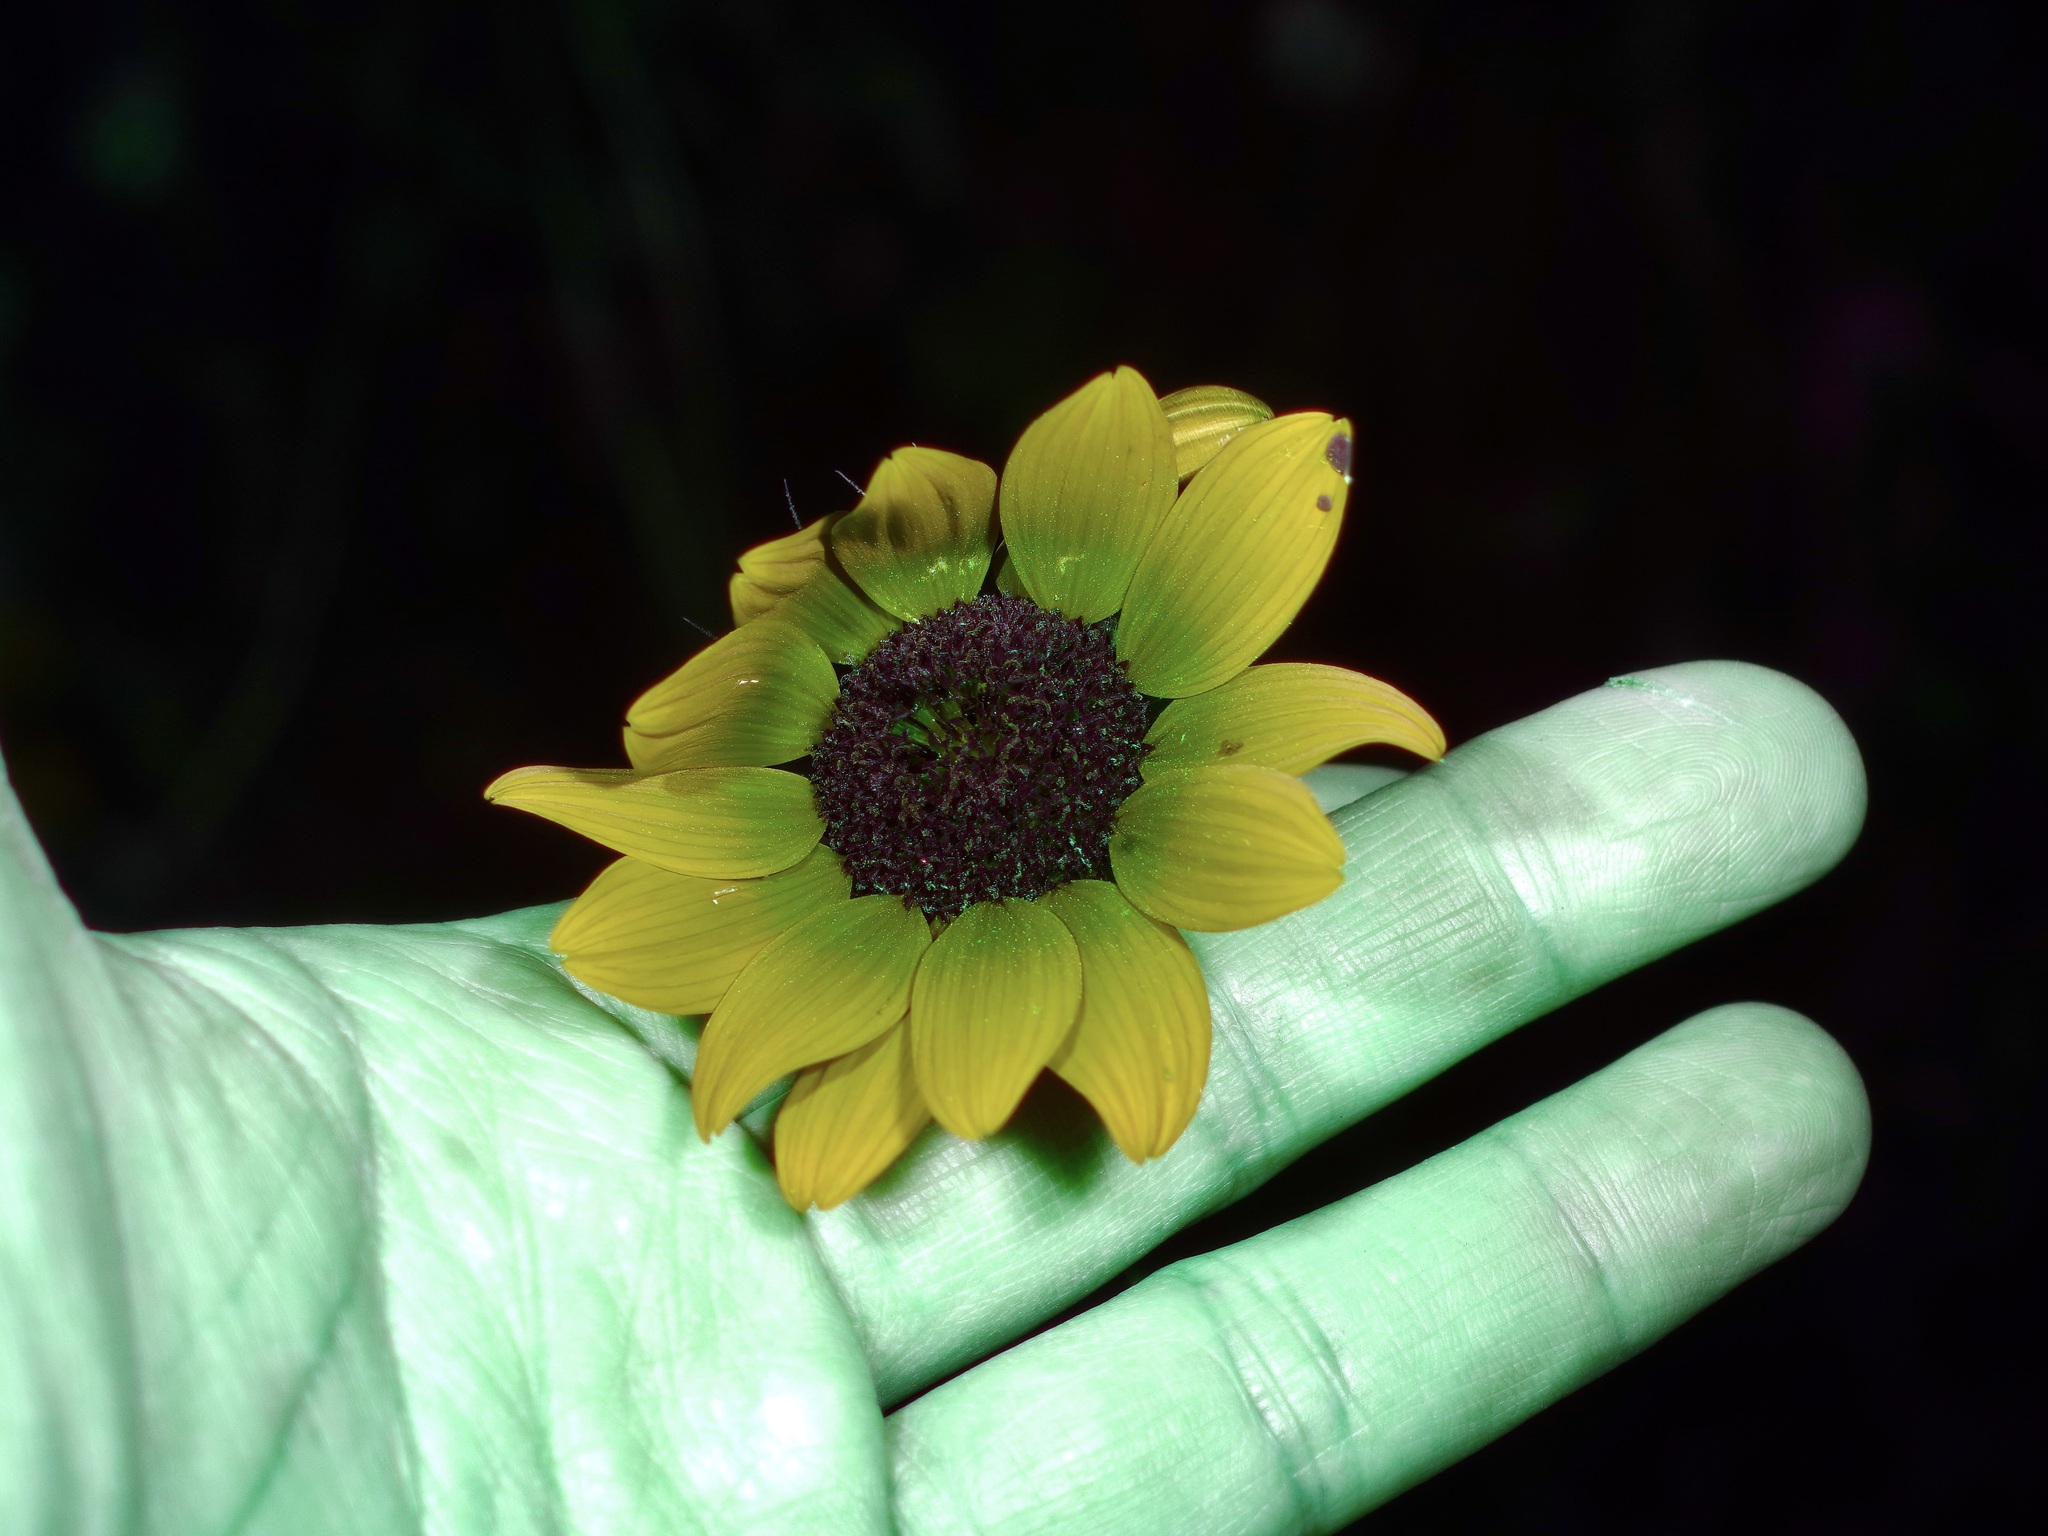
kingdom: Plantae
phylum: Tracheophyta
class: Magnoliopsida
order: Asterales
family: Asteraceae
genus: Helianthus
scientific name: Helianthus praecox
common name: Texas sunflower
